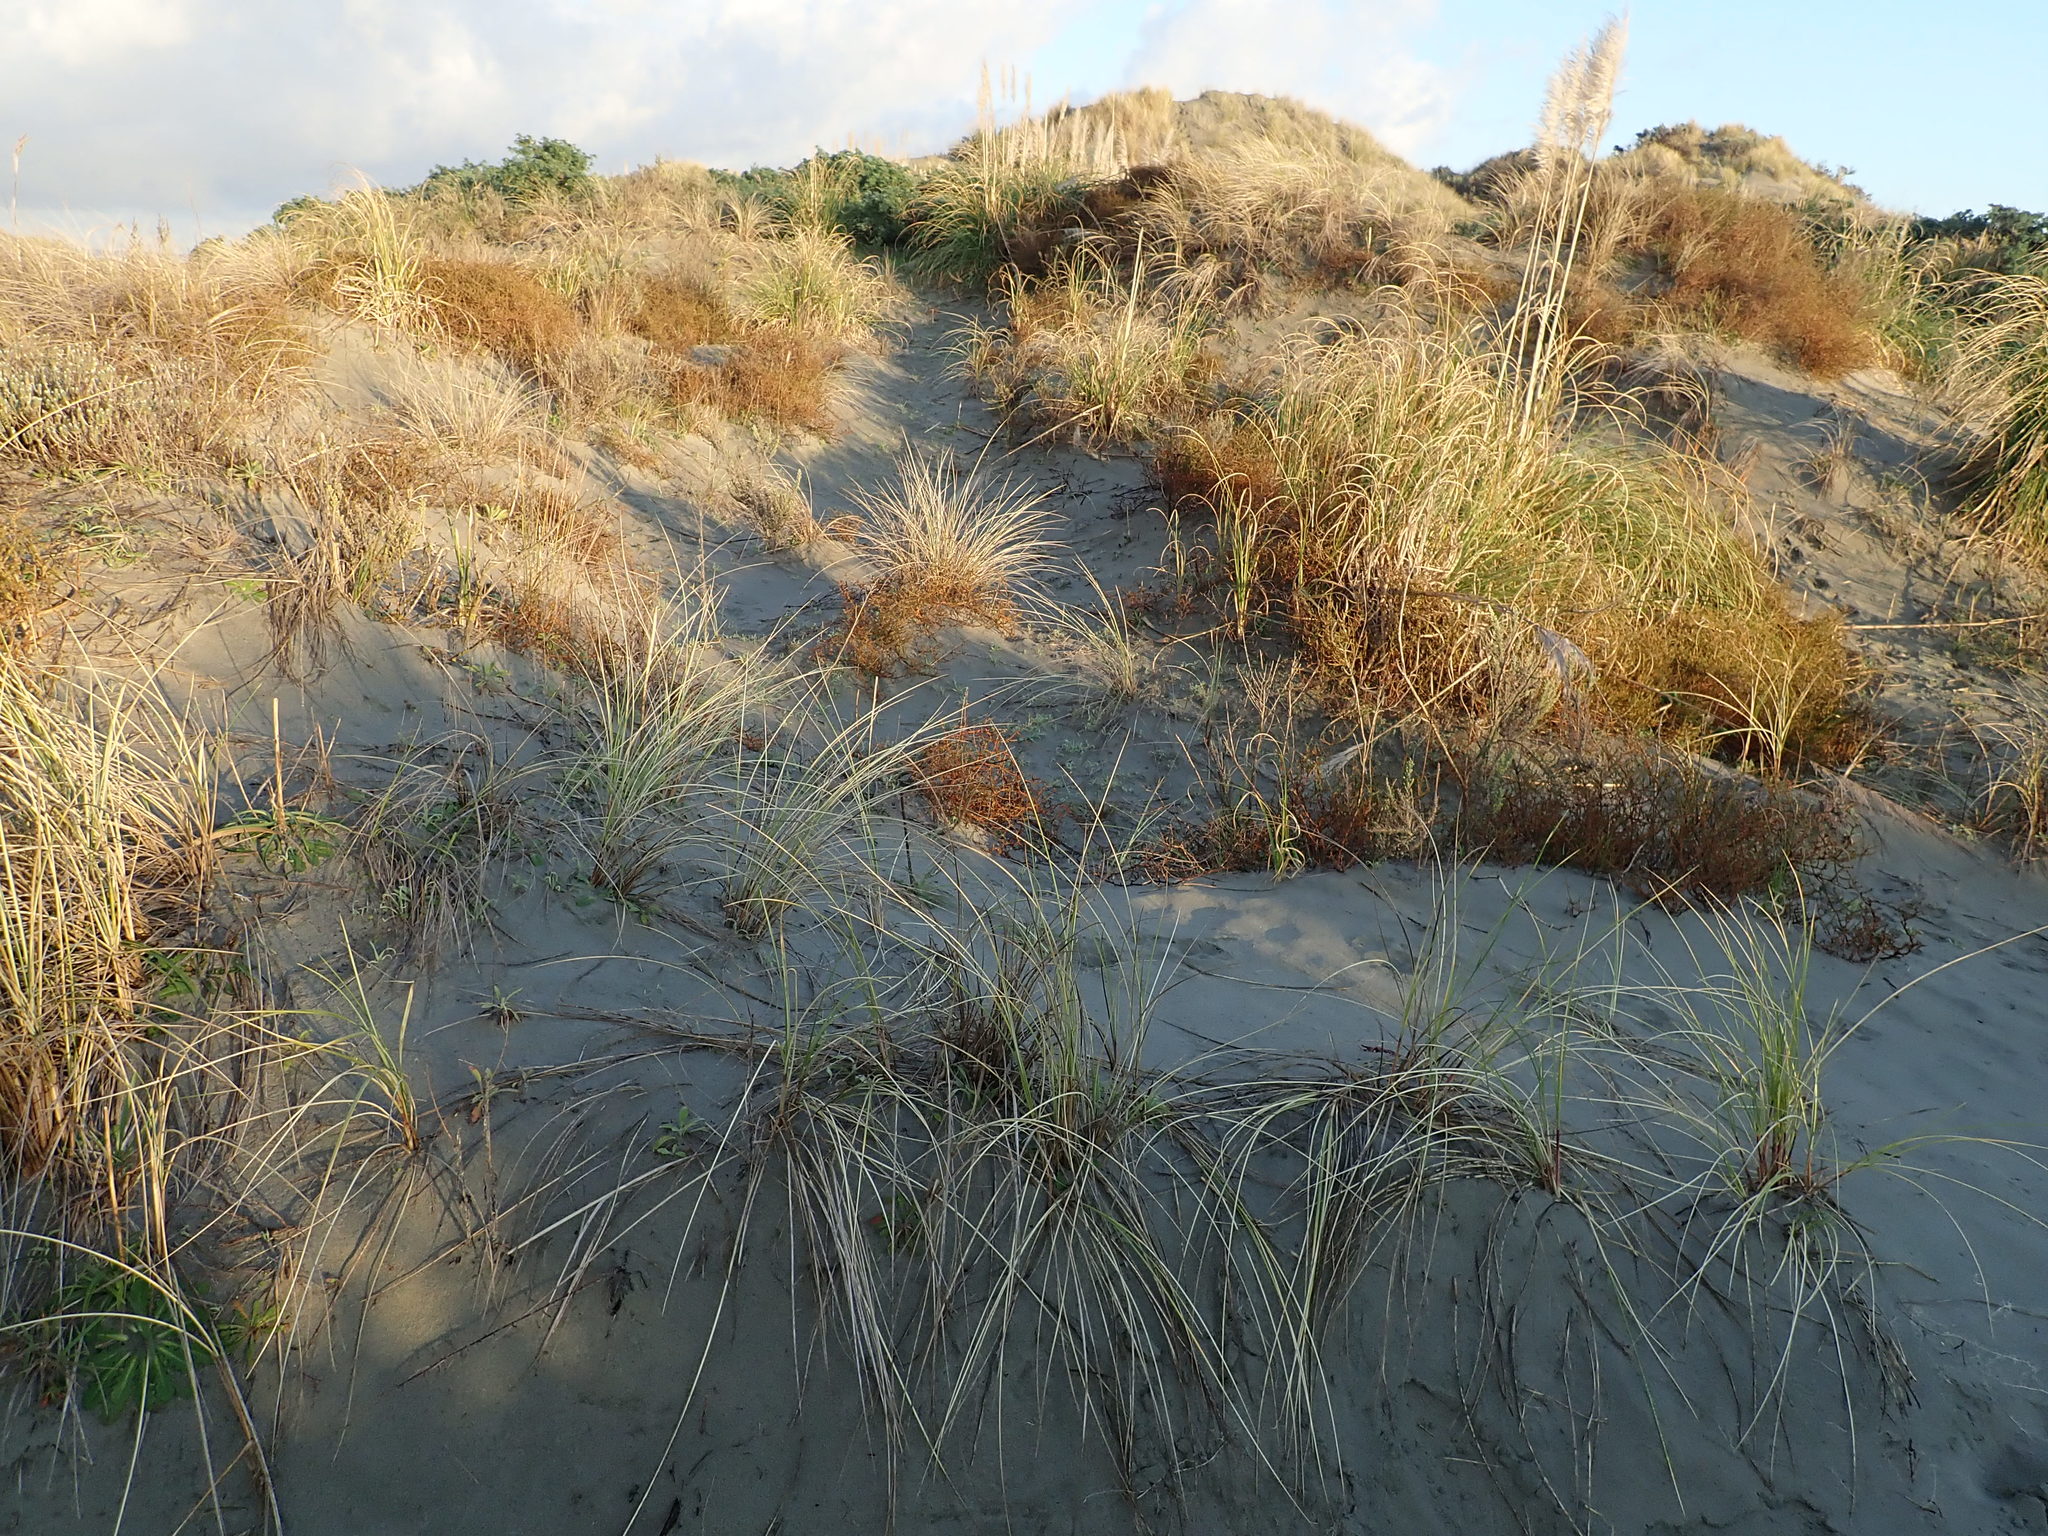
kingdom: Plantae
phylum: Tracheophyta
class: Magnoliopsida
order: Gentianales
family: Rubiaceae
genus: Coprosma
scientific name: Coprosma acerosa
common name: Sand coprosma
